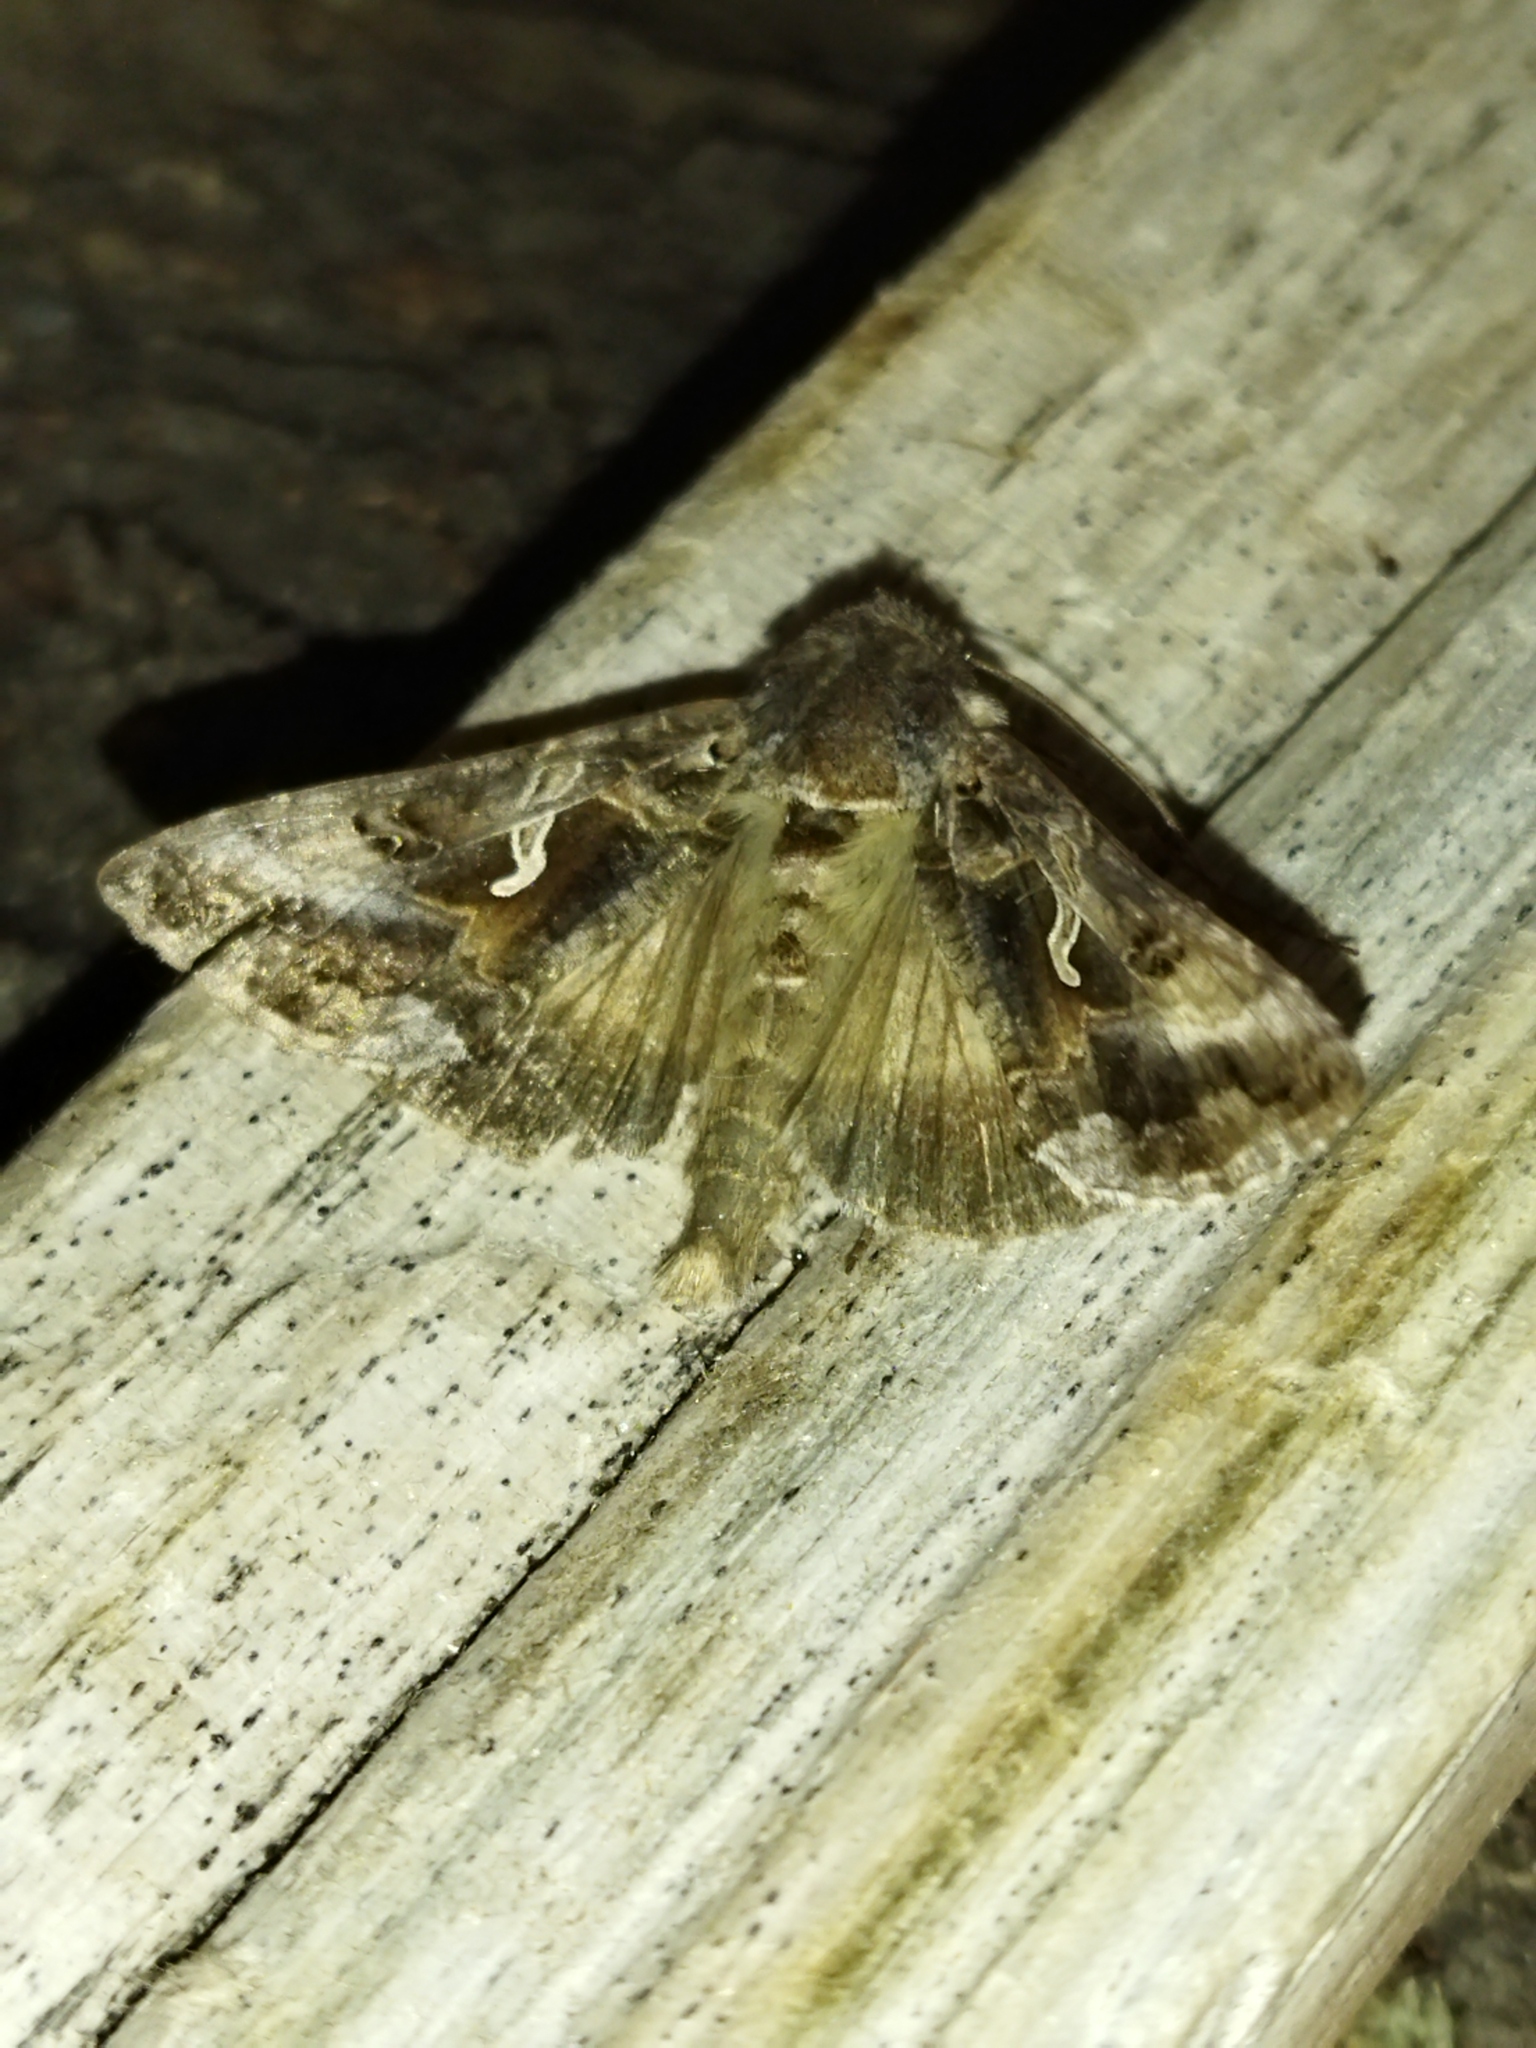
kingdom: Animalia
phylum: Arthropoda
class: Insecta
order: Lepidoptera
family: Noctuidae
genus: Autographa
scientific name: Autographa gamma
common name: Silver y
